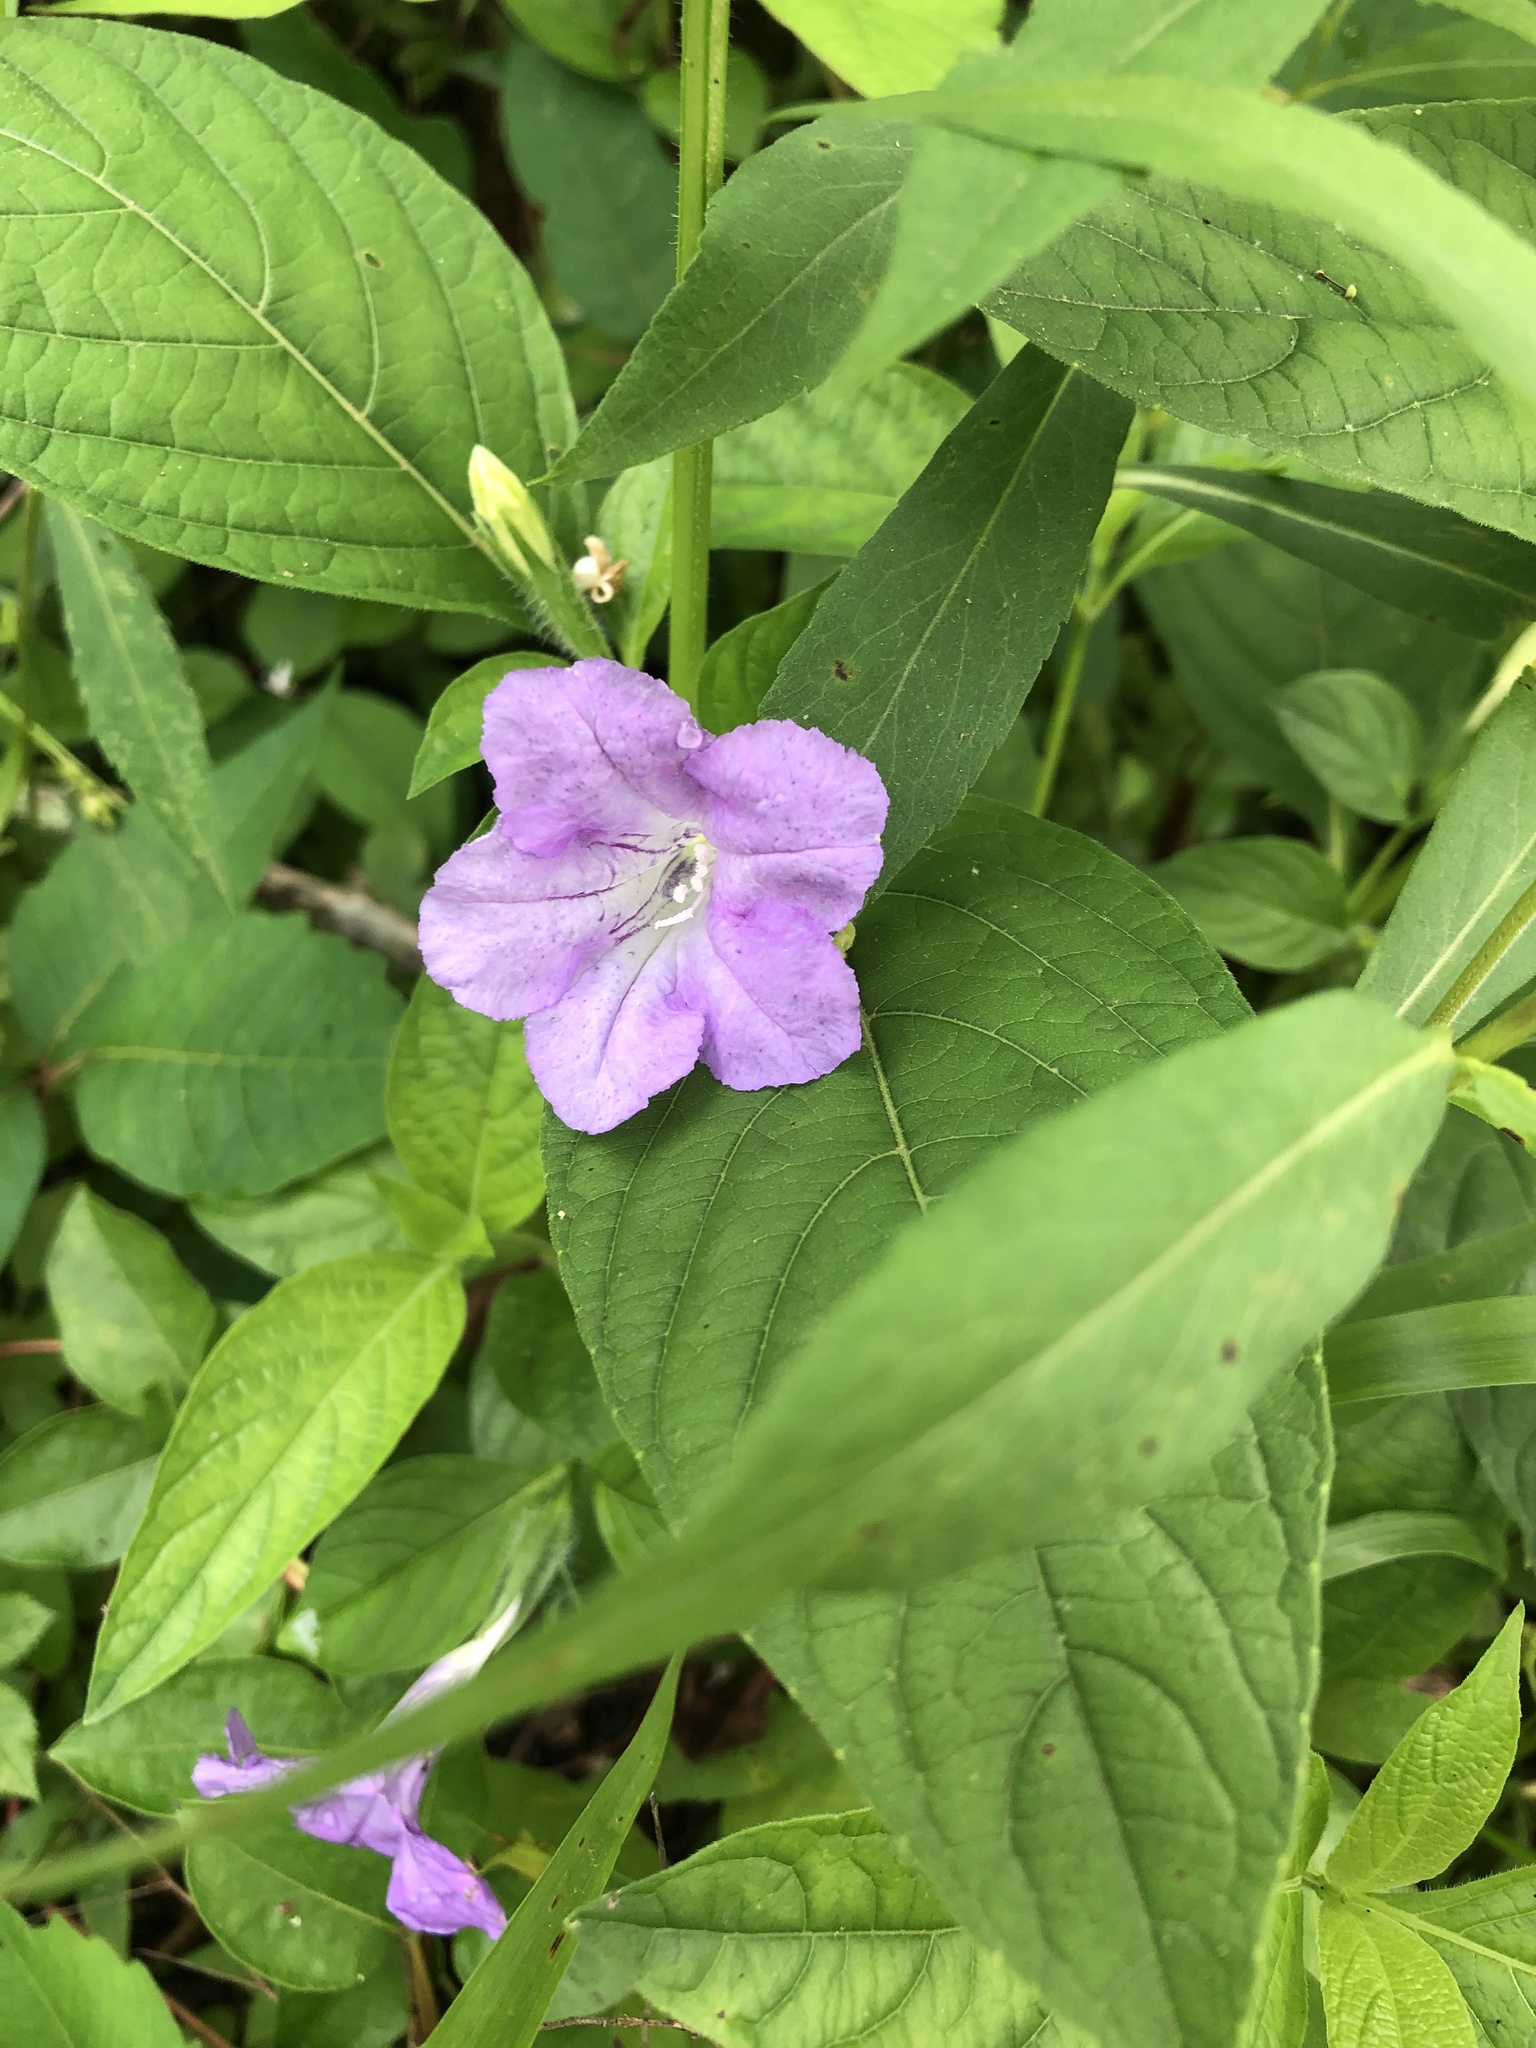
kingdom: Plantae
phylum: Tracheophyta
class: Magnoliopsida
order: Lamiales
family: Acanthaceae
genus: Ruellia
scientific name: Ruellia strepens
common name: Limestone wild petunia
